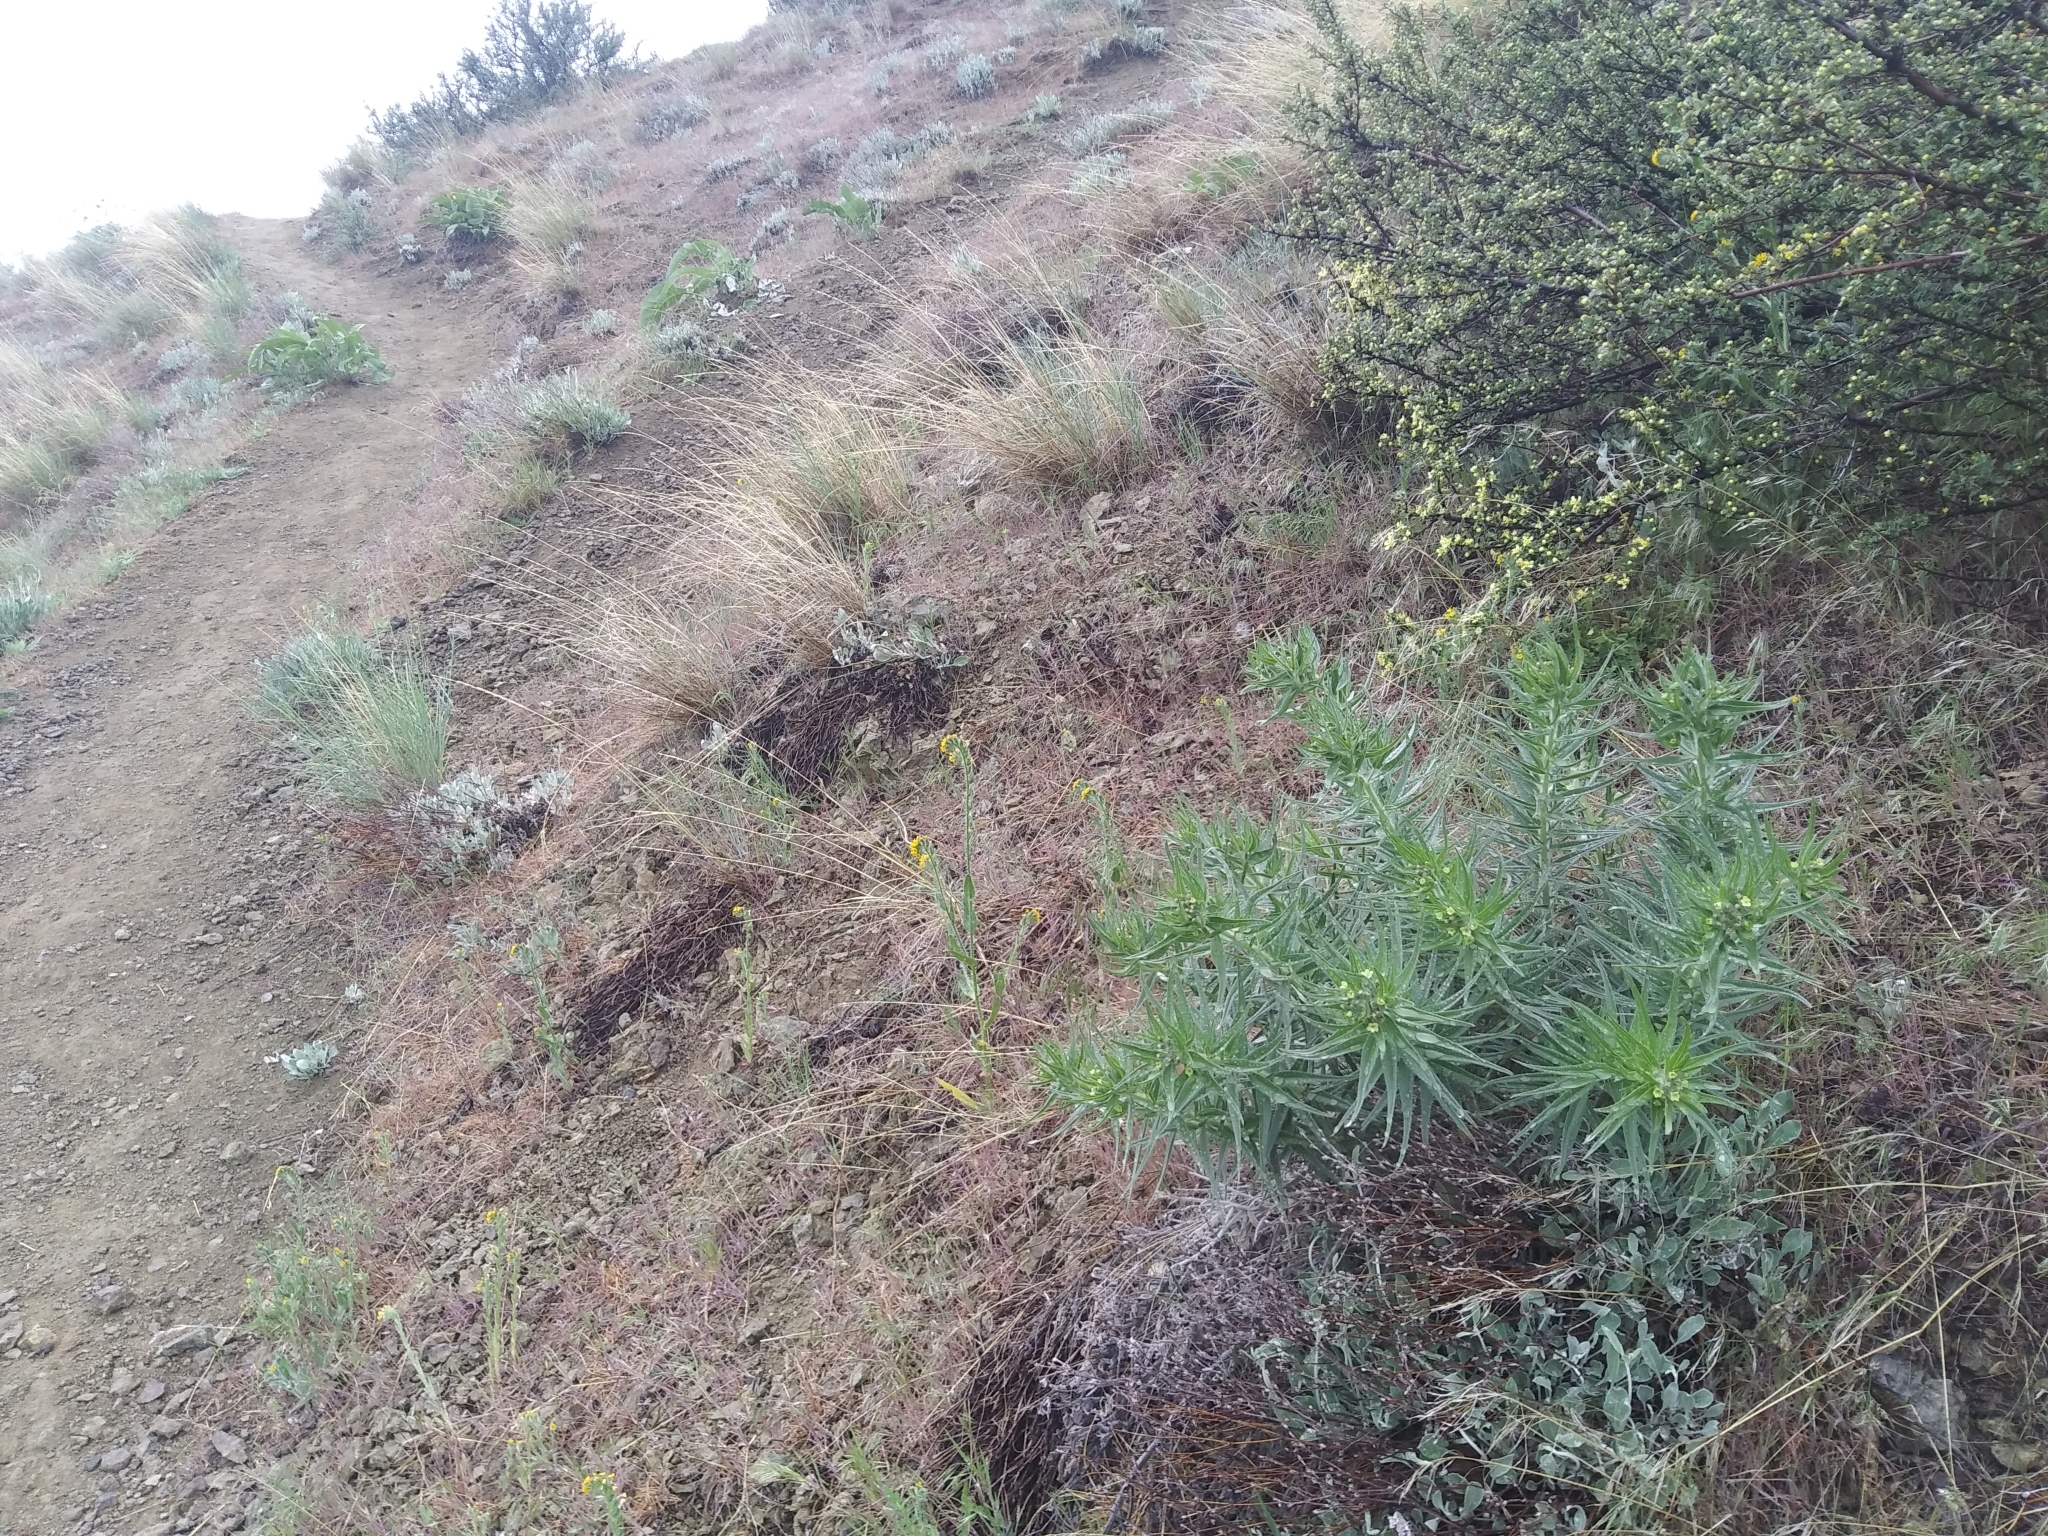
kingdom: Plantae
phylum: Tracheophyta
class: Magnoliopsida
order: Boraginales
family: Boraginaceae
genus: Lithospermum
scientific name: Lithospermum ruderale
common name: Western gromwell
